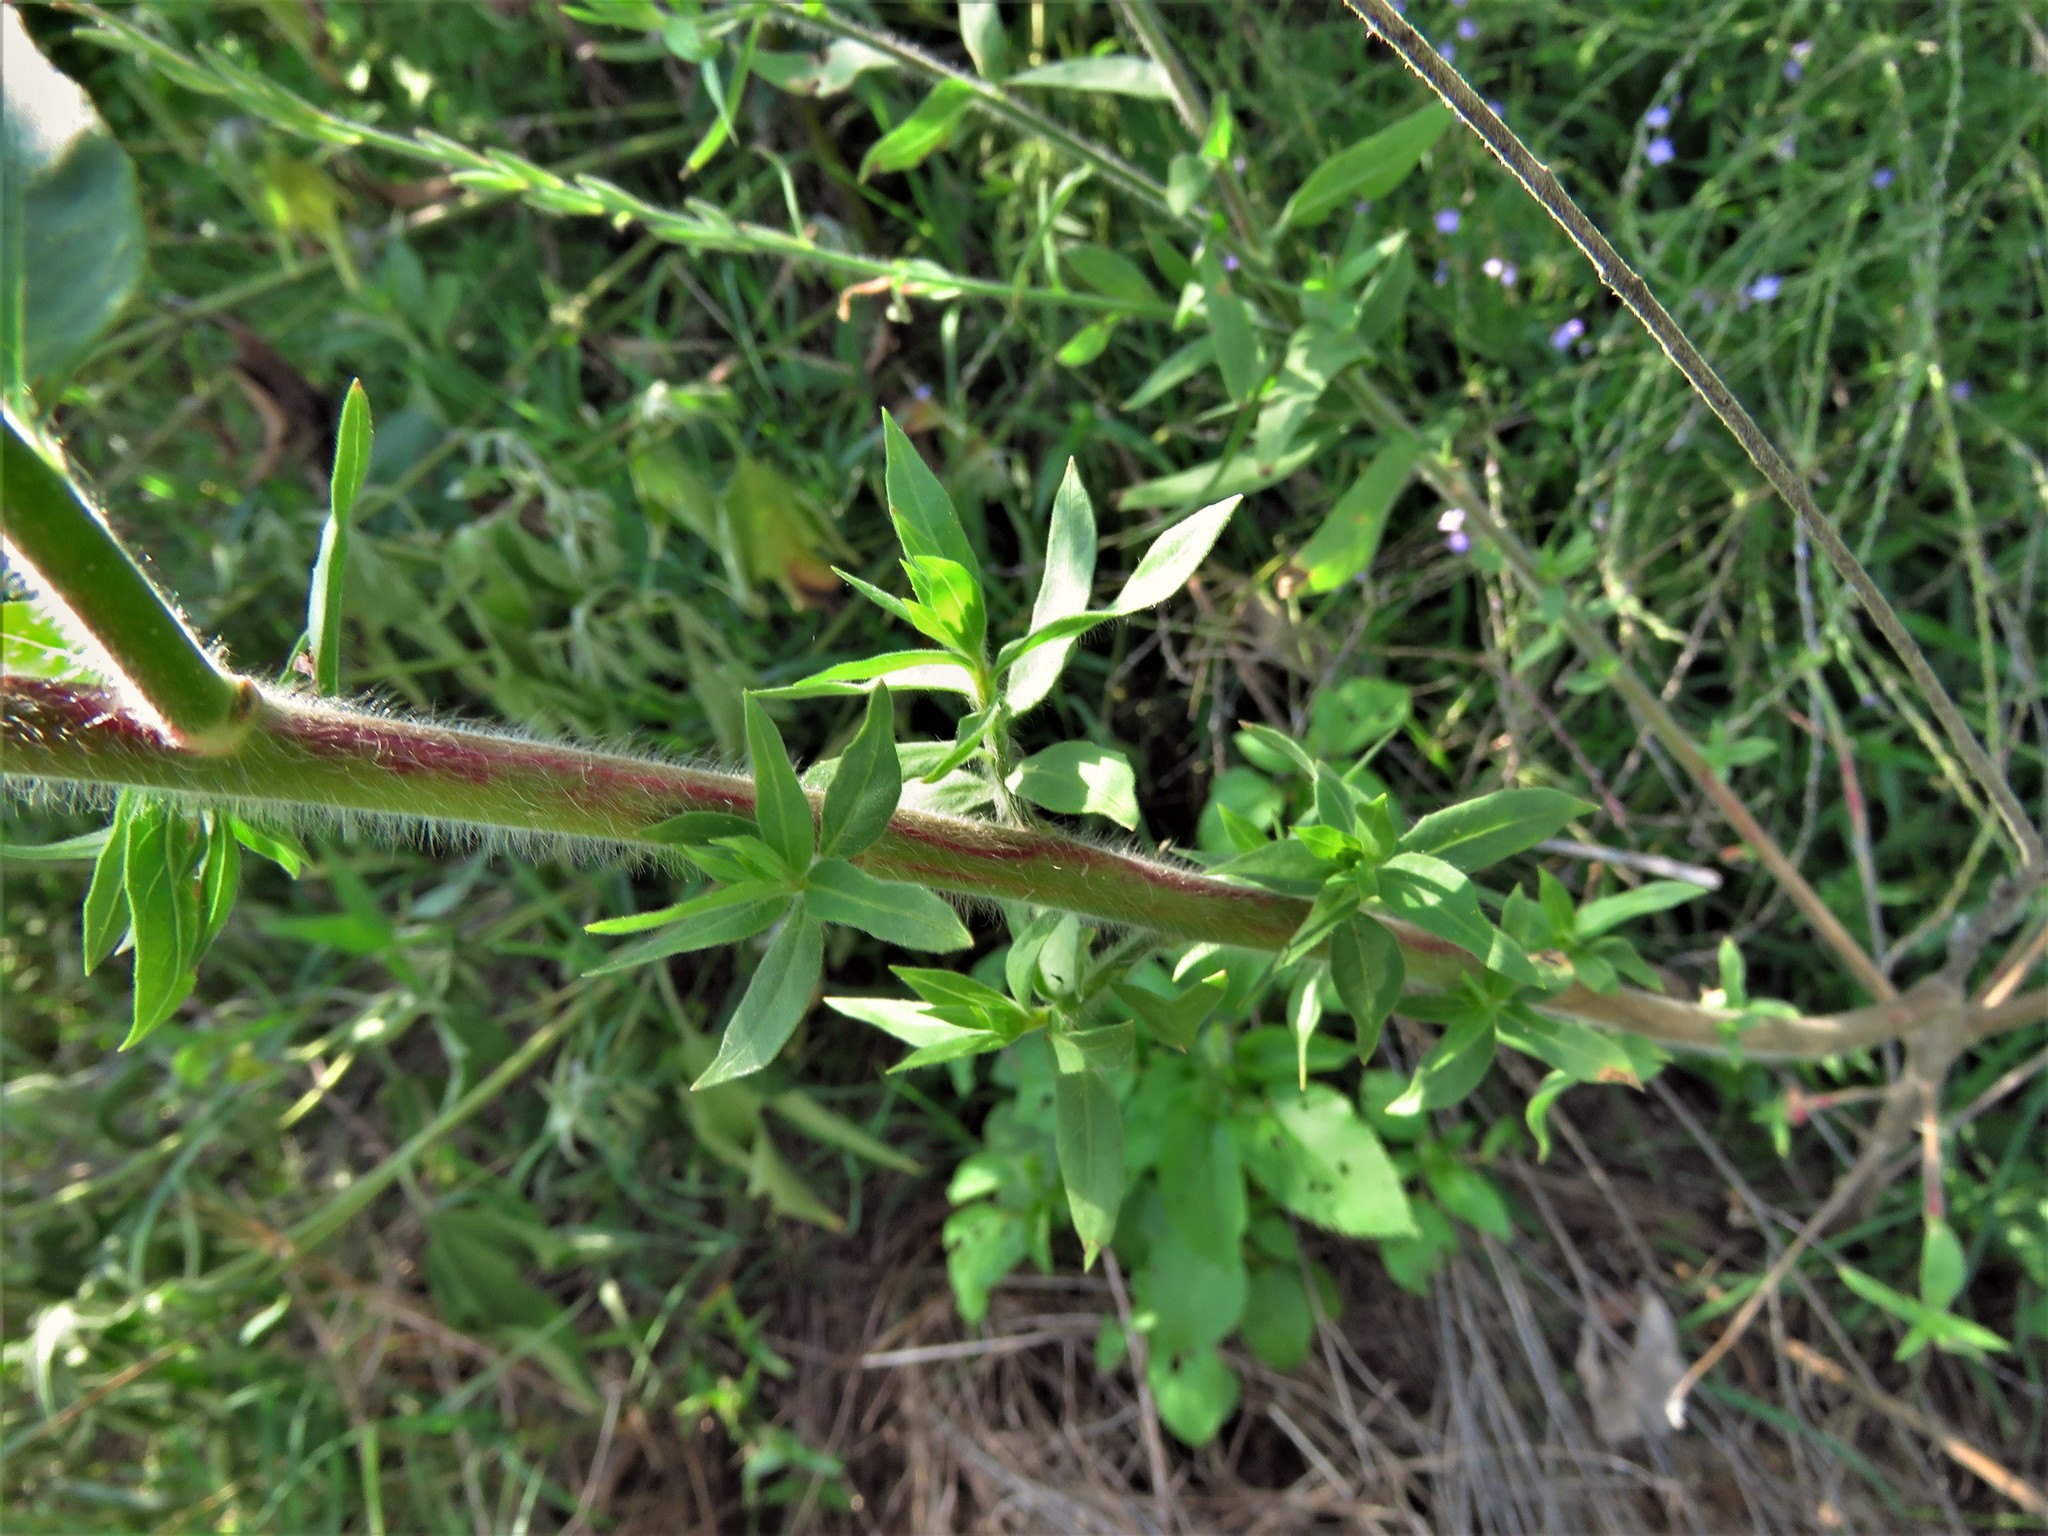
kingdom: Plantae
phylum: Tracheophyta
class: Magnoliopsida
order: Myrtales
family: Onagraceae
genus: Oenothera
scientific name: Oenothera curtiflora
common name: Velvetweed
